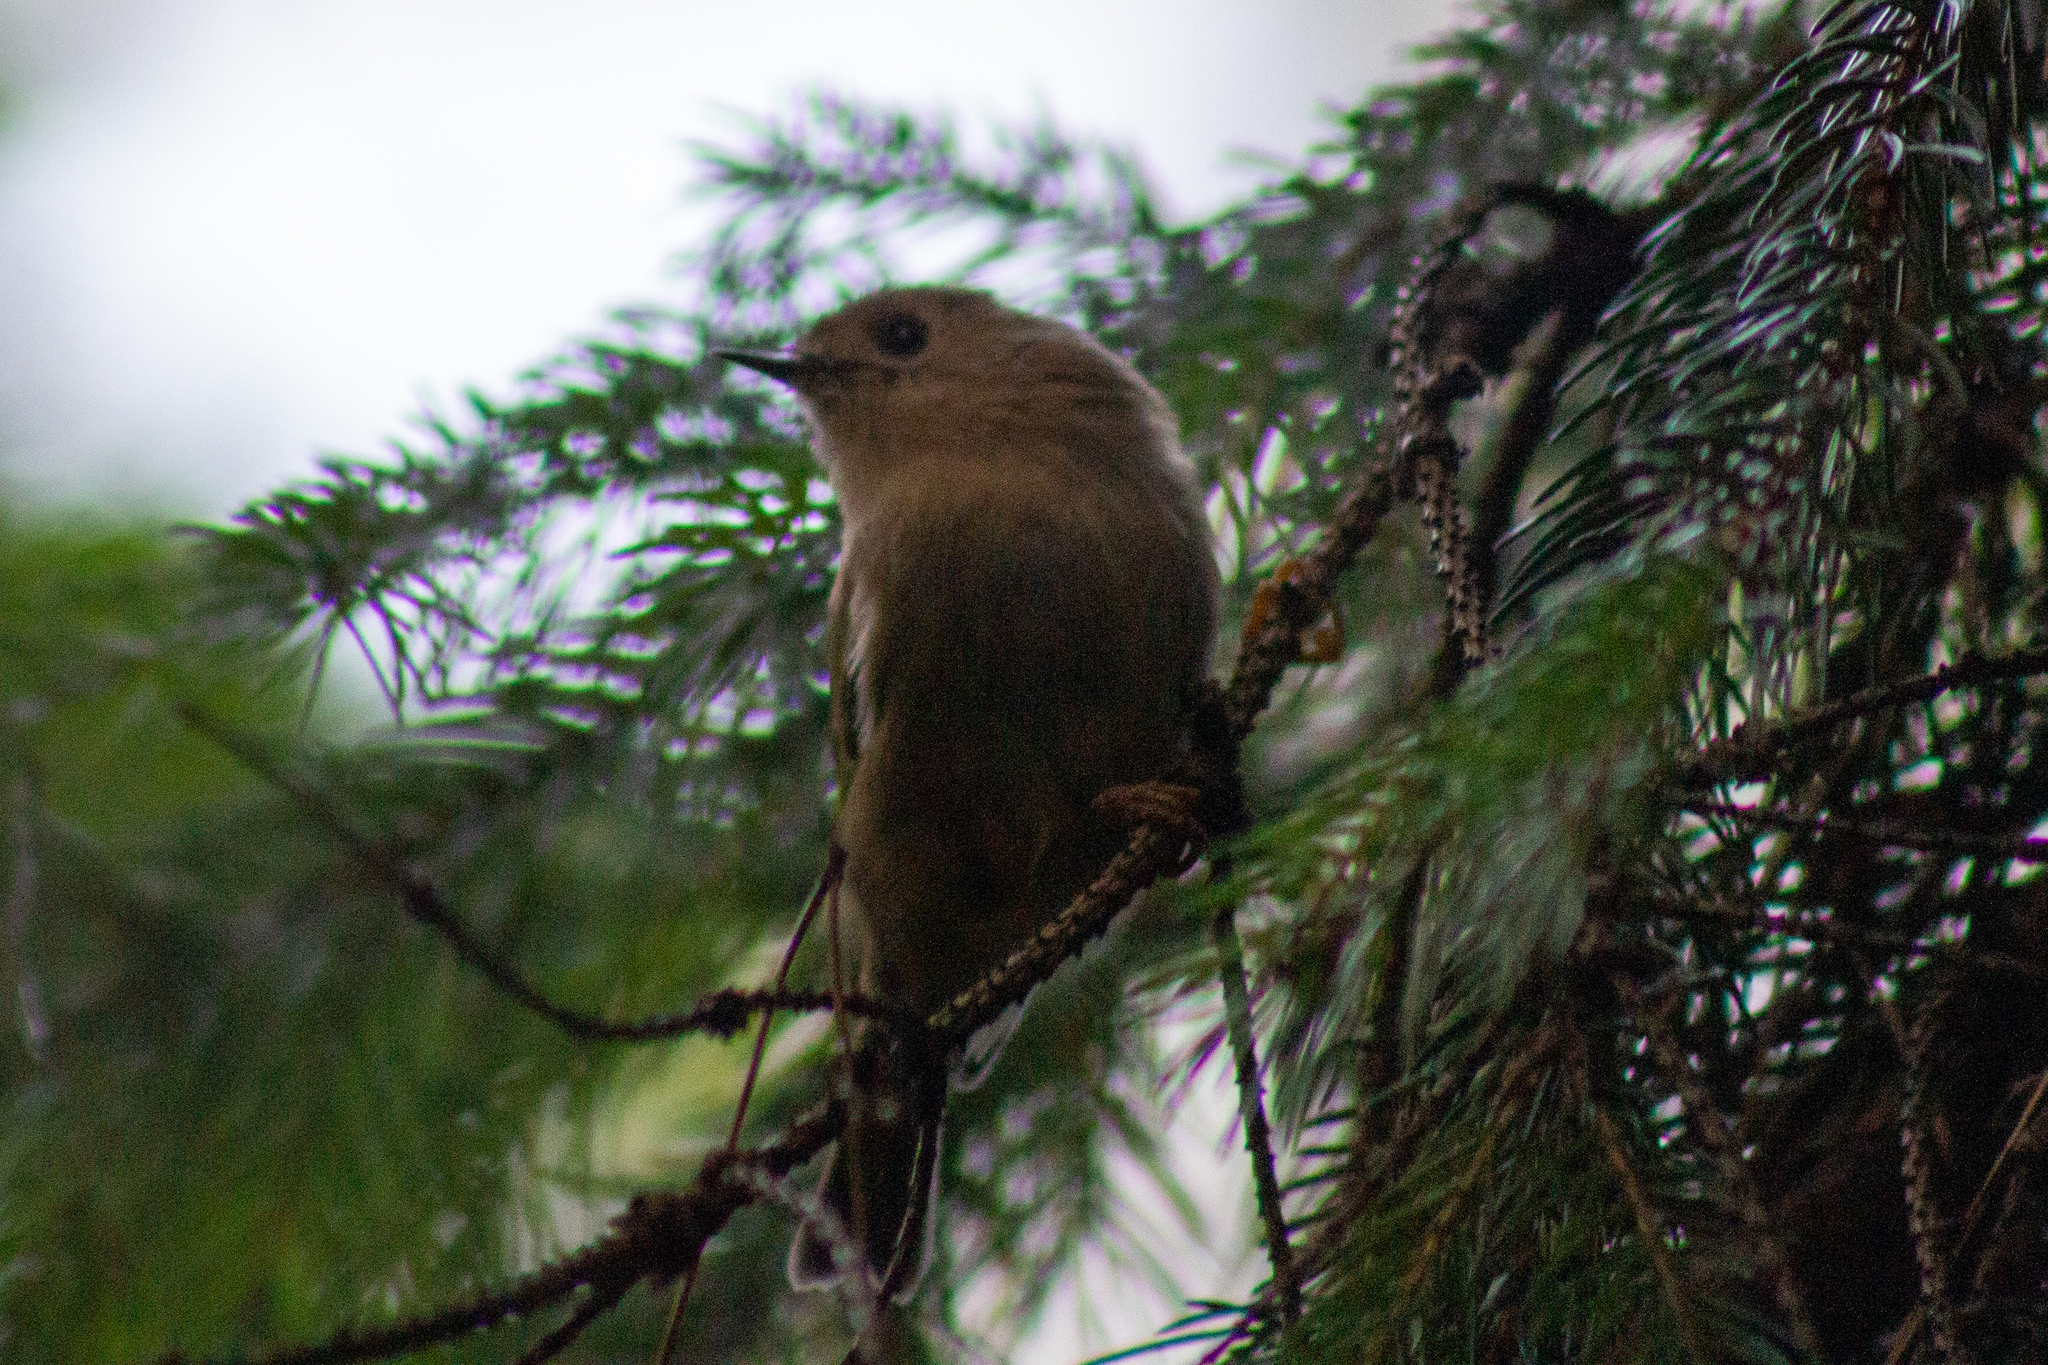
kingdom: Animalia
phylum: Chordata
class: Aves
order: Passeriformes
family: Regulidae
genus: Regulus
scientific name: Regulus regulus
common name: Goldcrest
